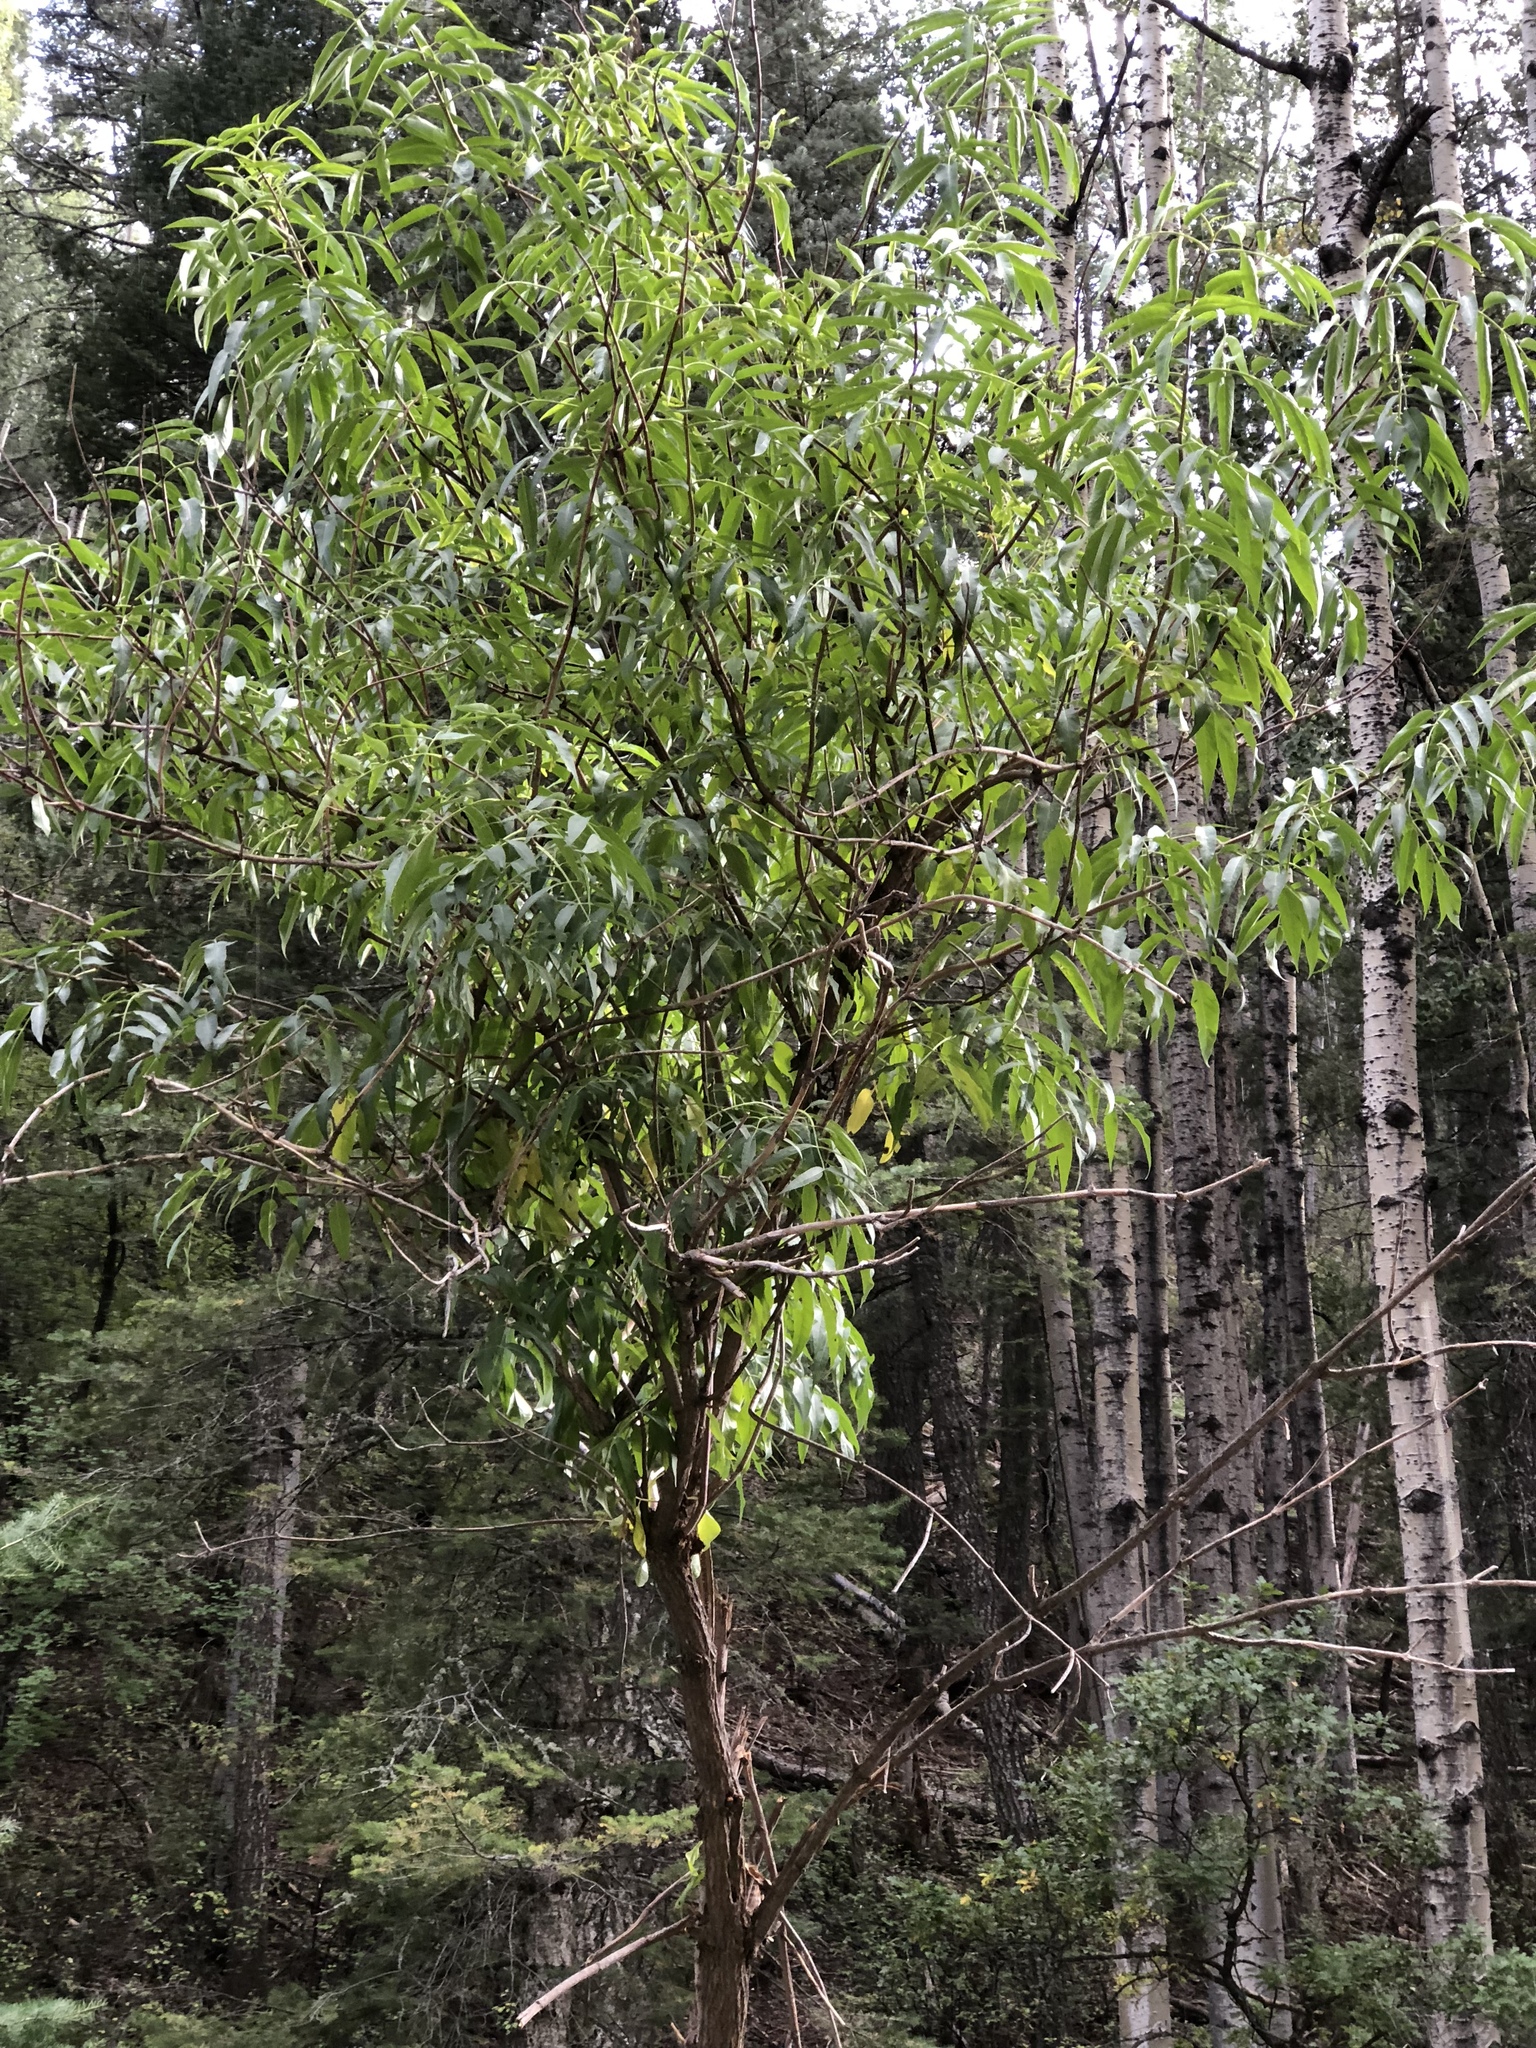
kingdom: Plantae
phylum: Tracheophyta
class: Magnoliopsida
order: Dipsacales
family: Viburnaceae
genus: Sambucus
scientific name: Sambucus cerulea
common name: Blue elder
